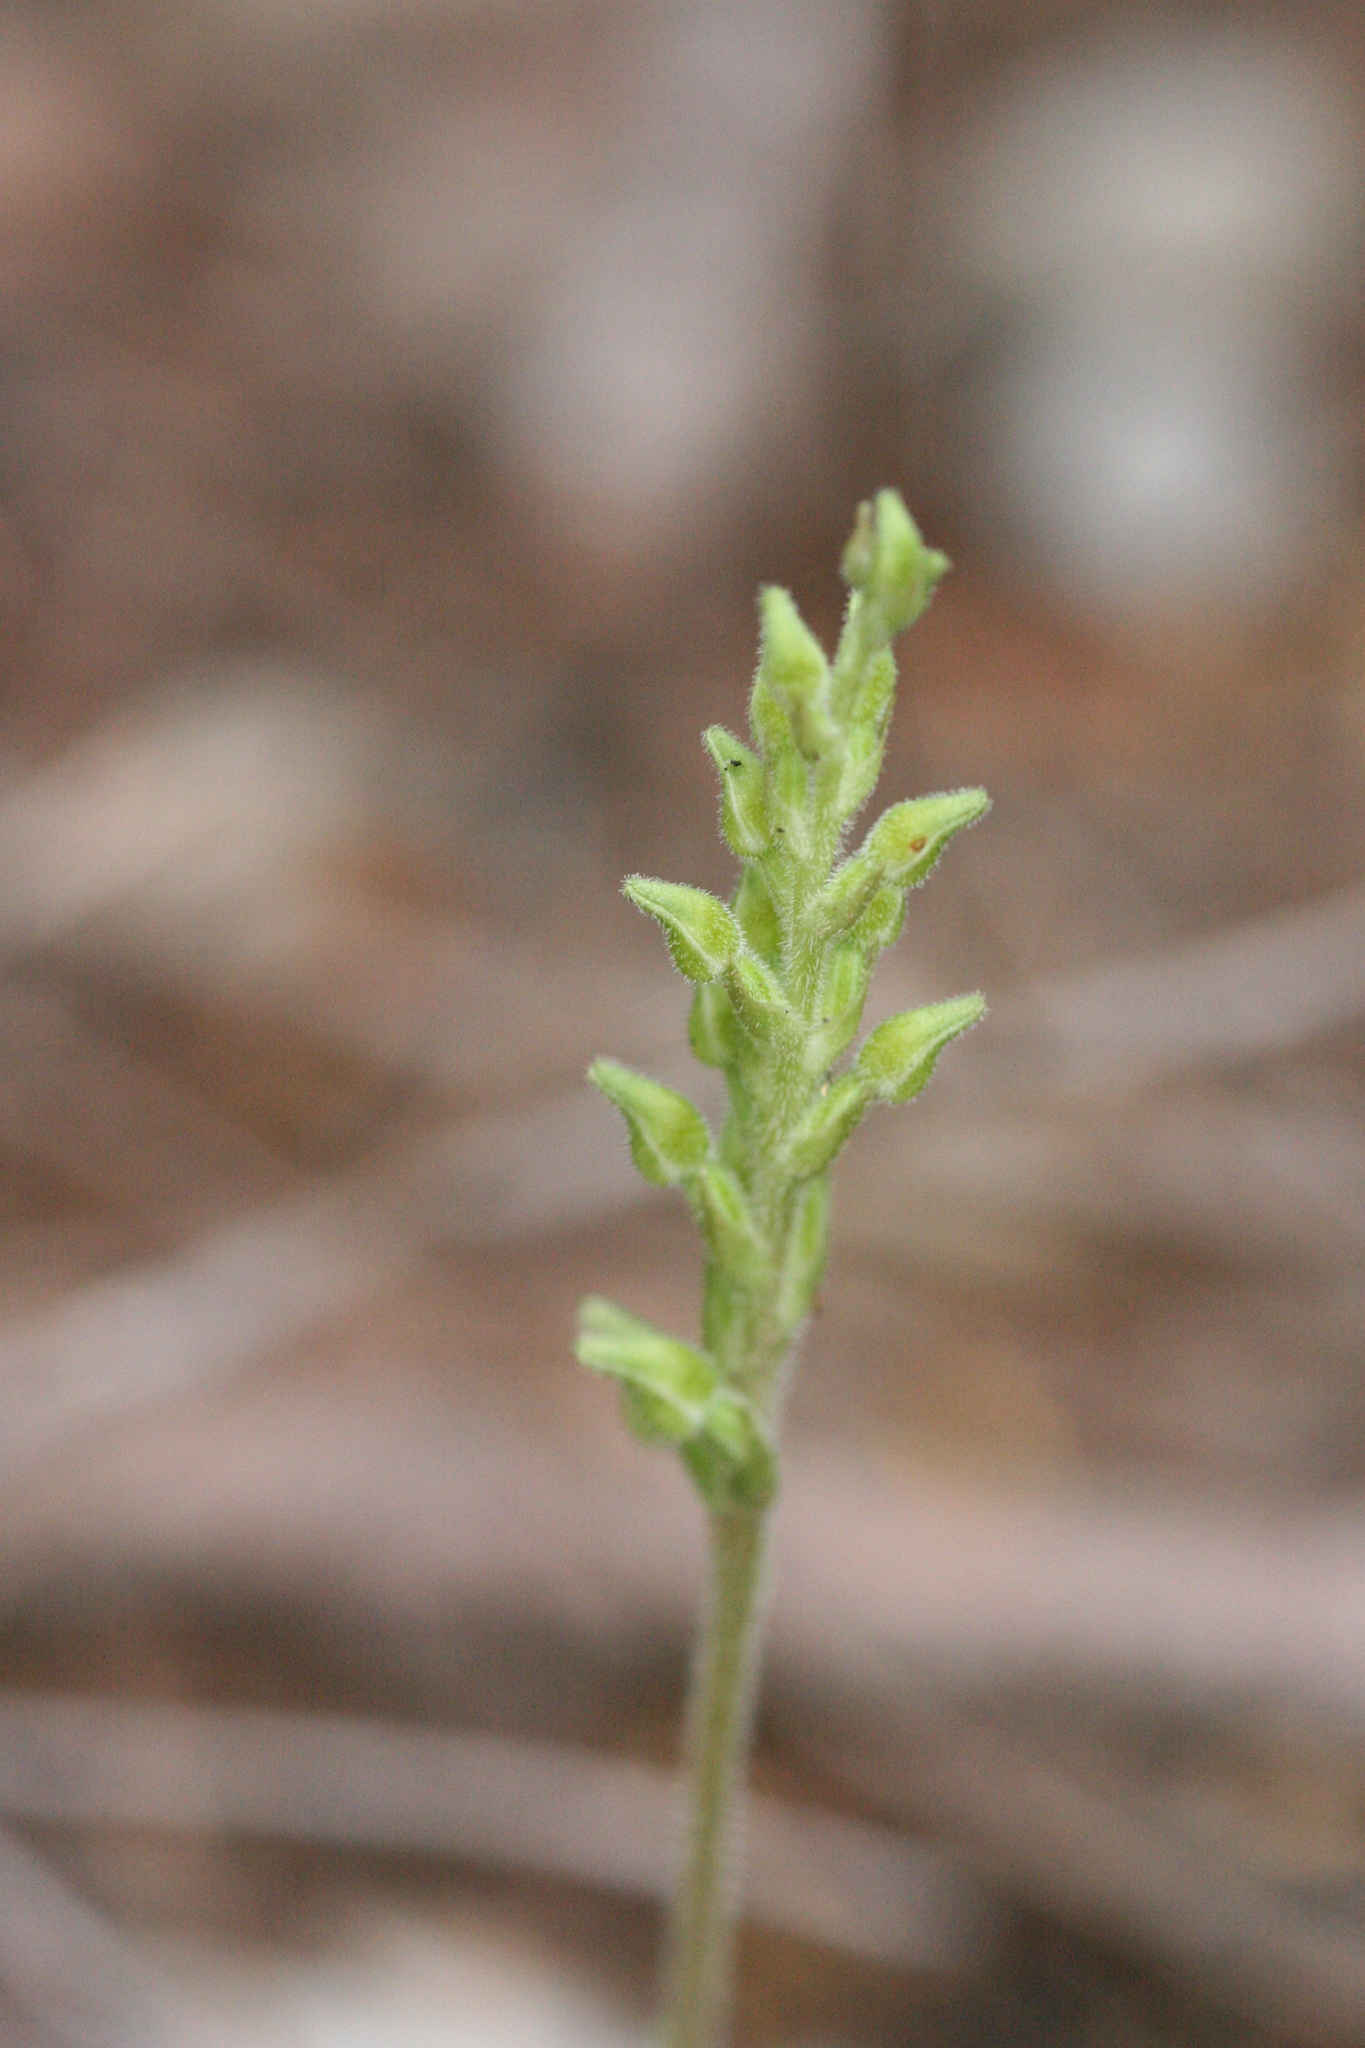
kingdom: Plantae
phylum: Tracheophyta
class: Liliopsida
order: Asparagales
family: Orchidaceae
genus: Goodyera
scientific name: Goodyera oblongifolia
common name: Giant rattlesnake-plantain
